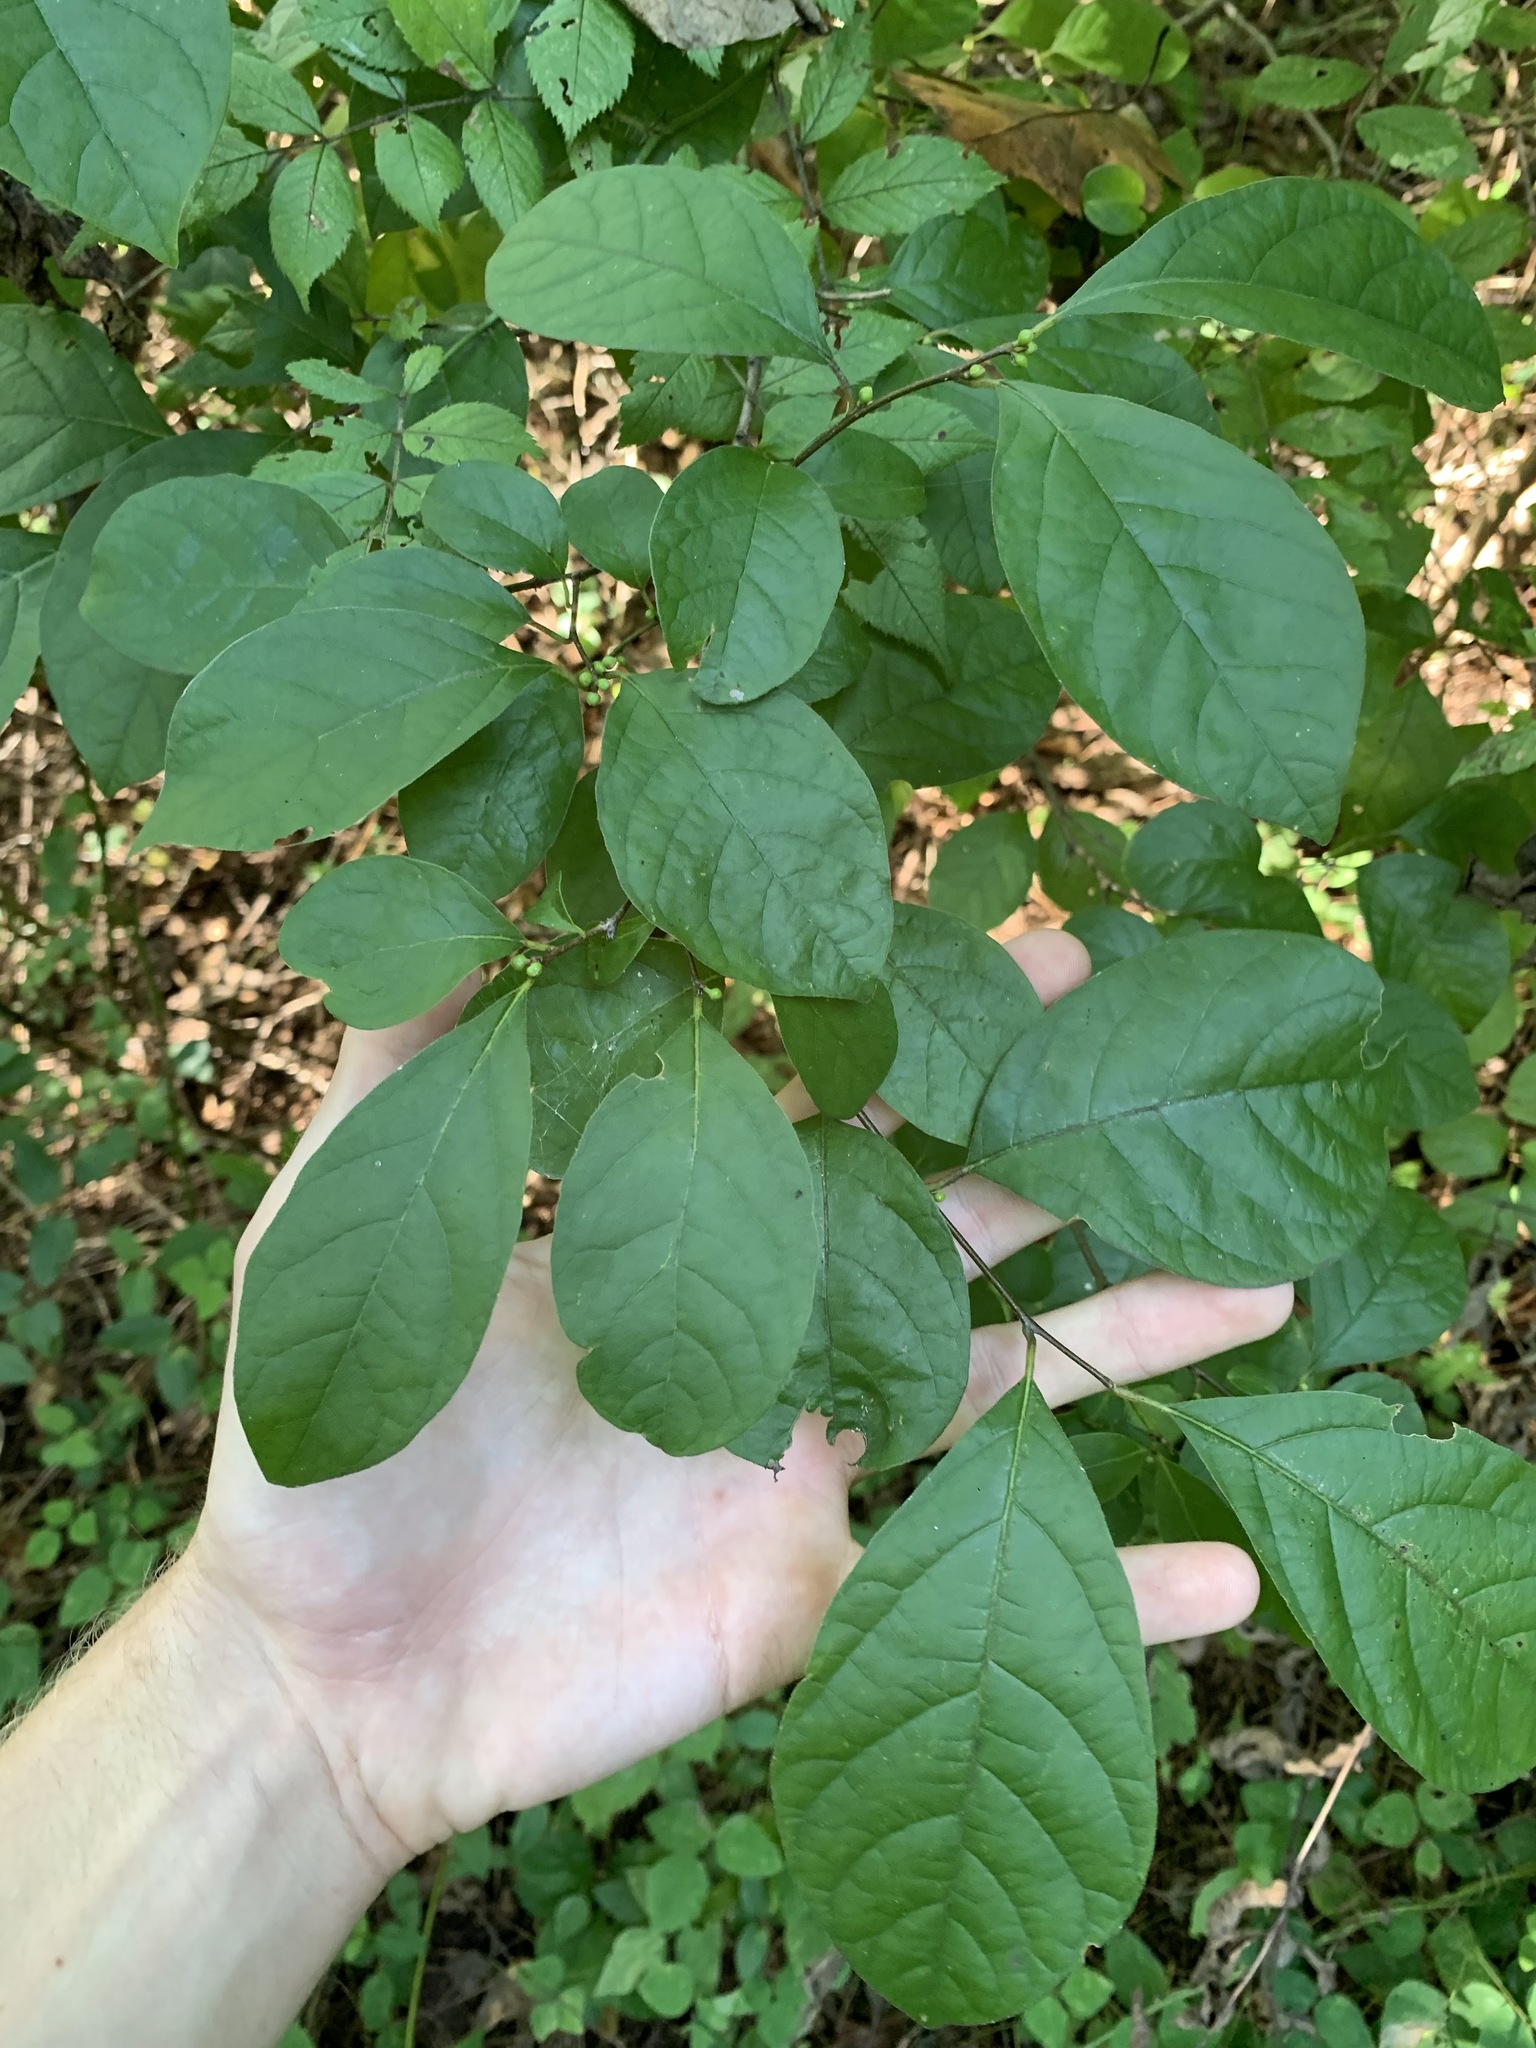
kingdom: Plantae
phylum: Tracheophyta
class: Magnoliopsida
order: Laurales
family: Lauraceae
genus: Lindera
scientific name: Lindera benzoin
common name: Spicebush
